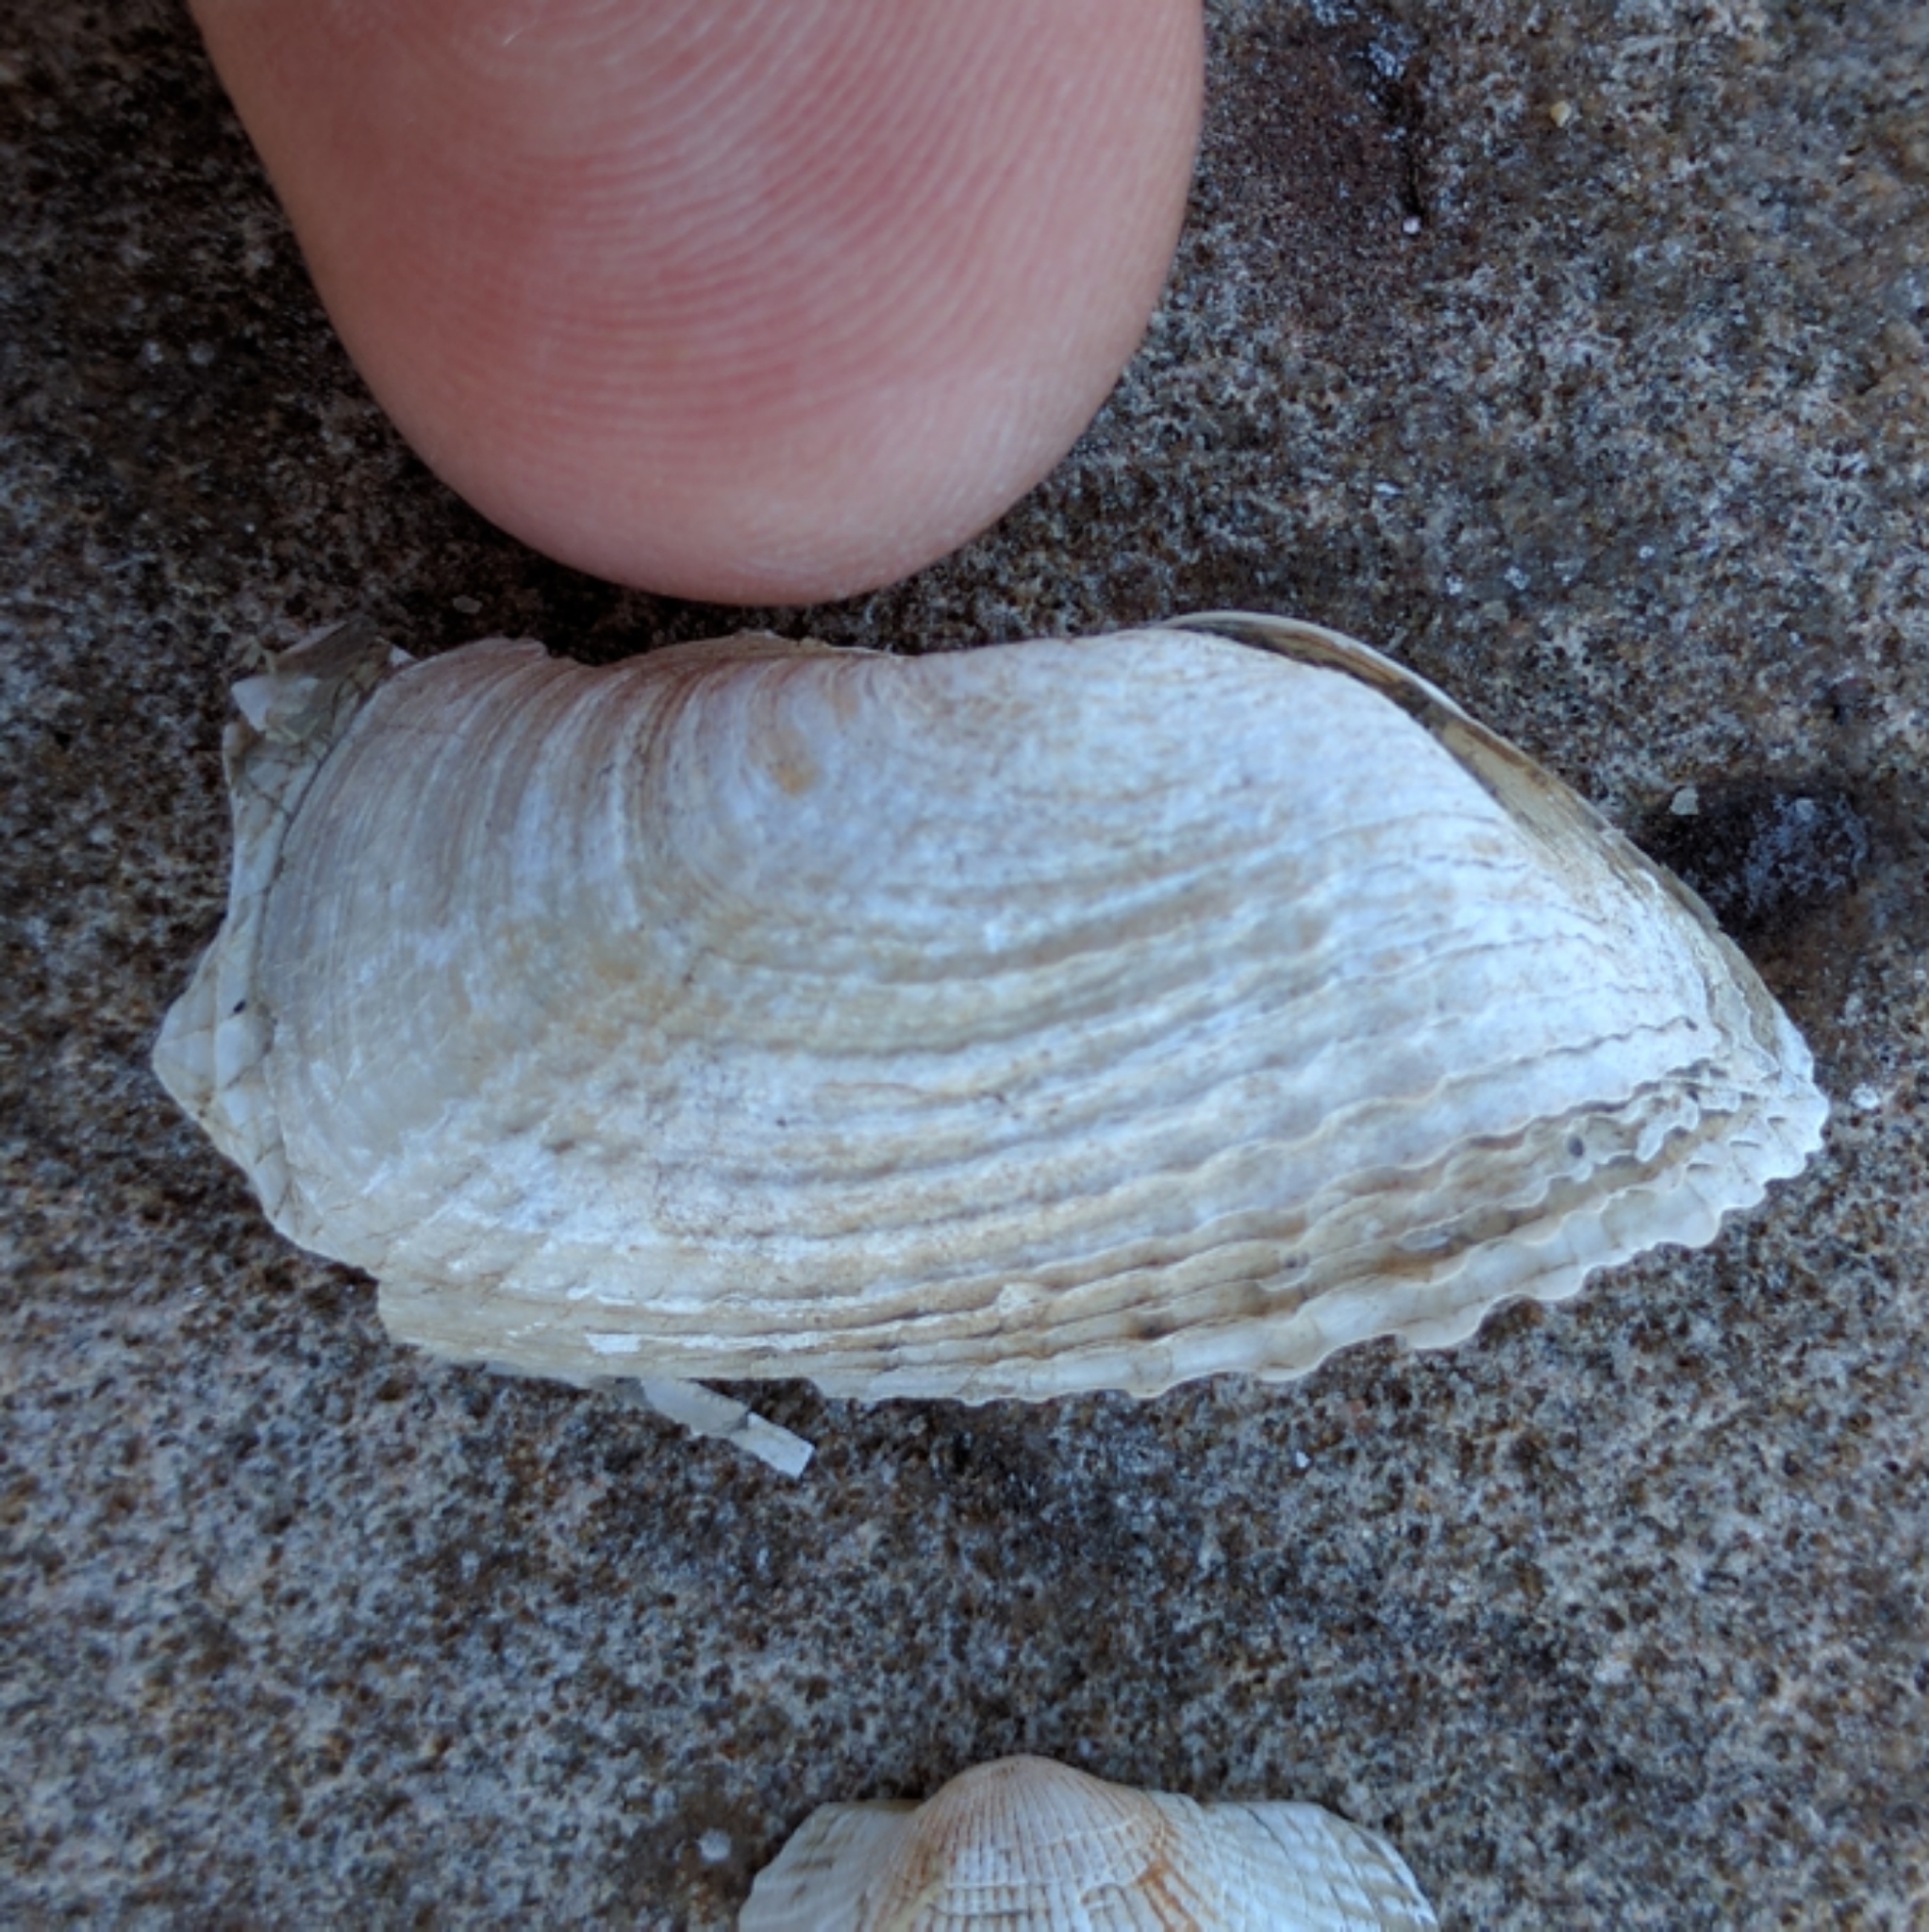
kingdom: Animalia
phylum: Mollusca
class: Bivalvia
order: Myida
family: Pholadidae
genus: Barnea
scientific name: Barnea truncata
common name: Atlantic mud piddock
